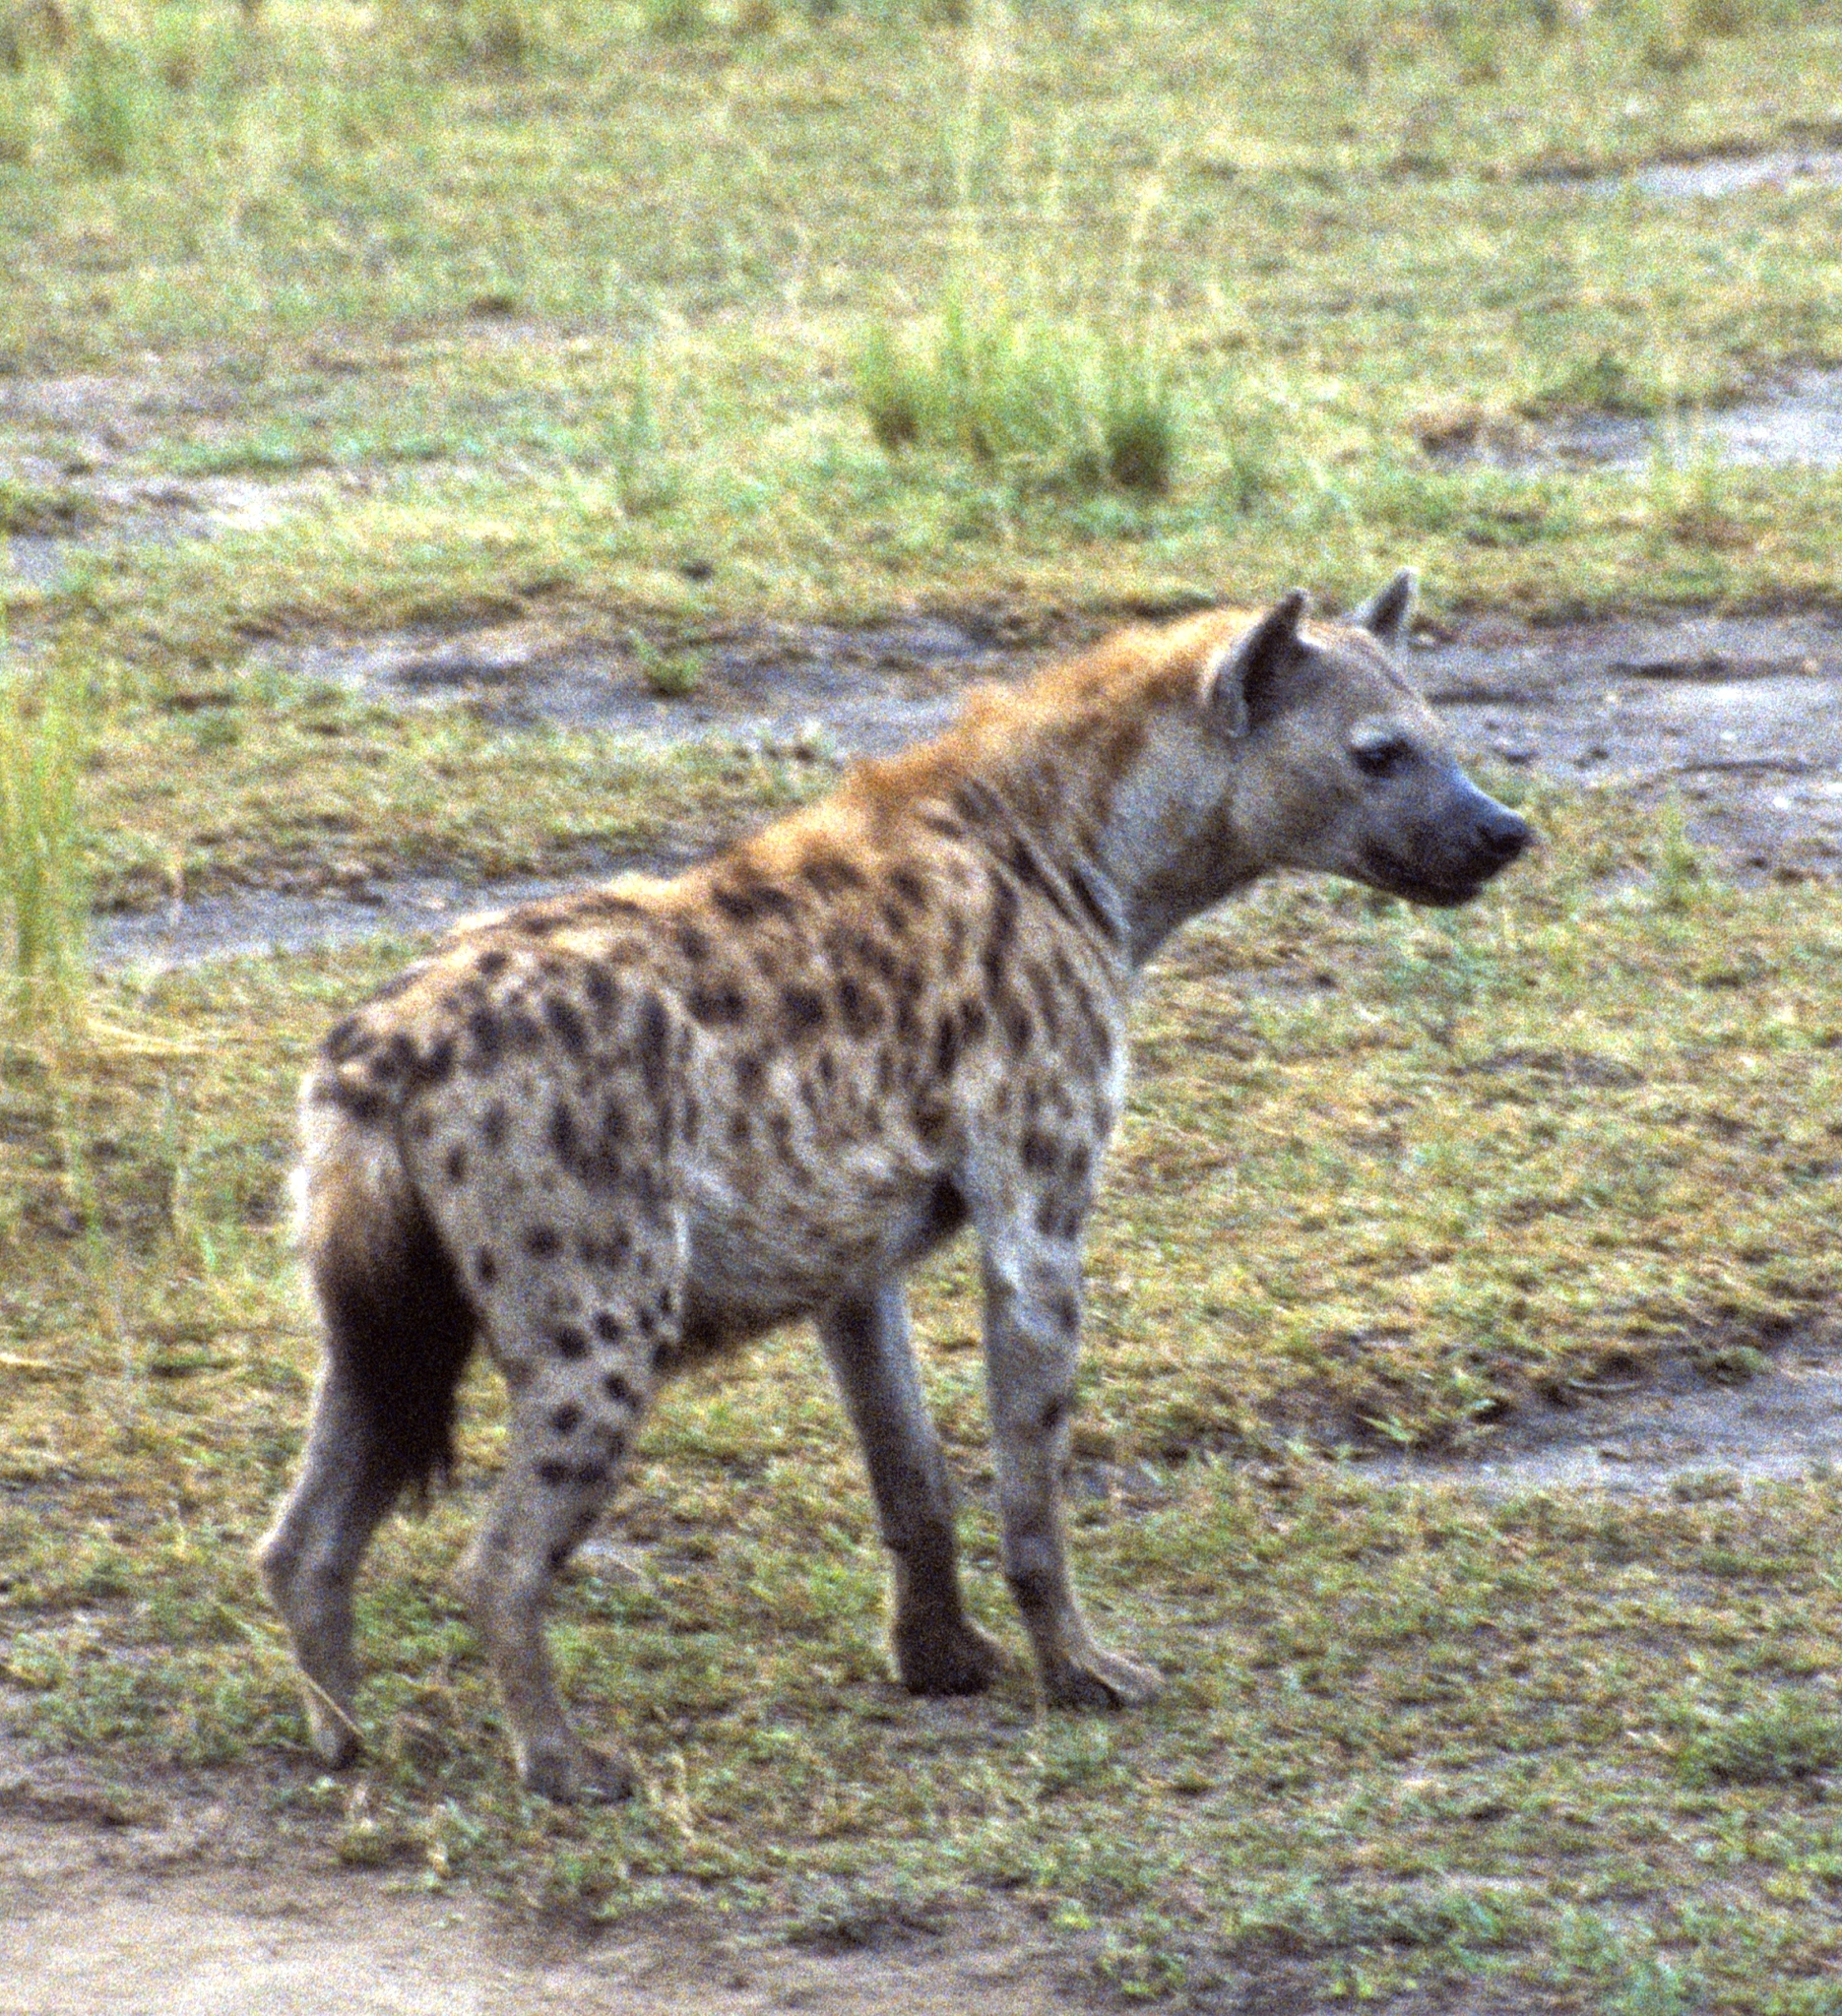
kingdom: Animalia
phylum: Chordata
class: Mammalia
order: Carnivora
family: Hyaenidae
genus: Crocuta
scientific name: Crocuta crocuta
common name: Spotted hyaena
